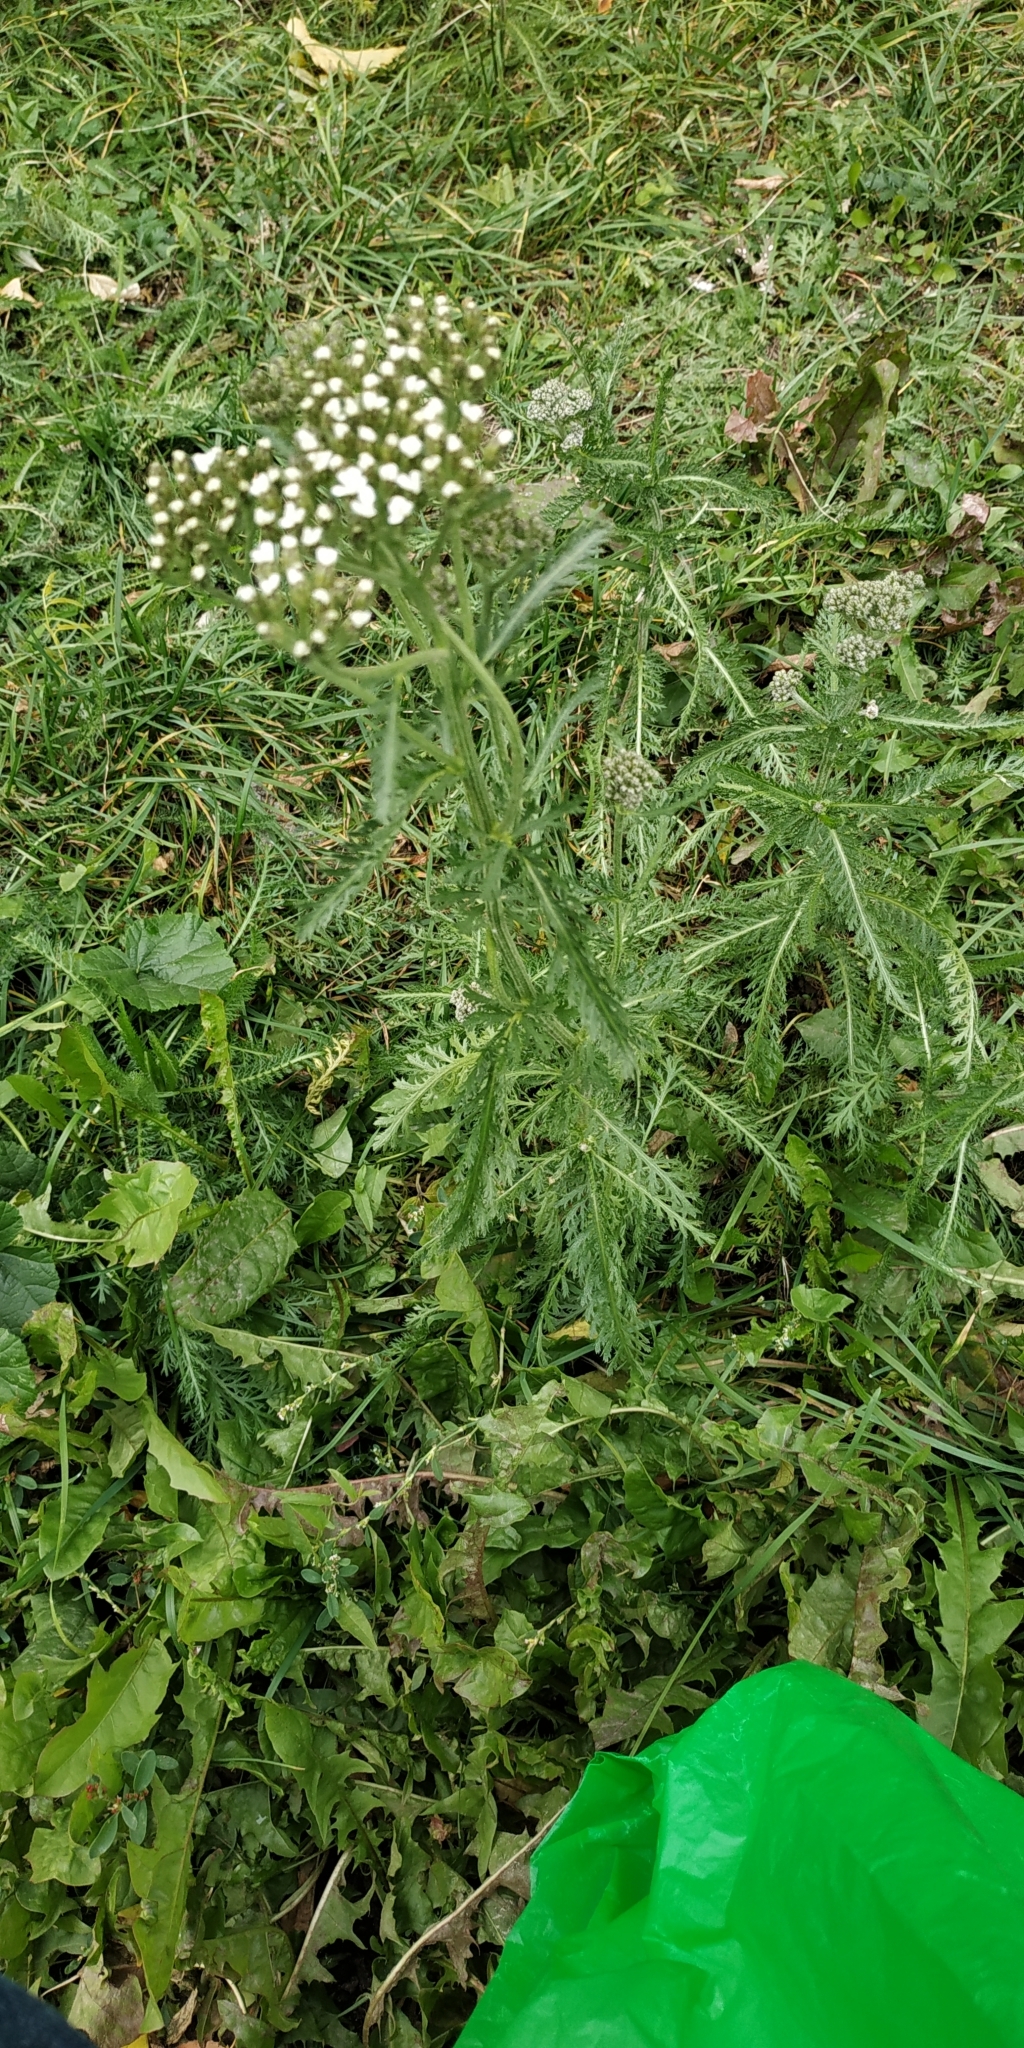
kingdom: Plantae
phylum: Tracheophyta
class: Magnoliopsida
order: Asterales
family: Asteraceae
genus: Achillea
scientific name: Achillea millefolium
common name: Yarrow
